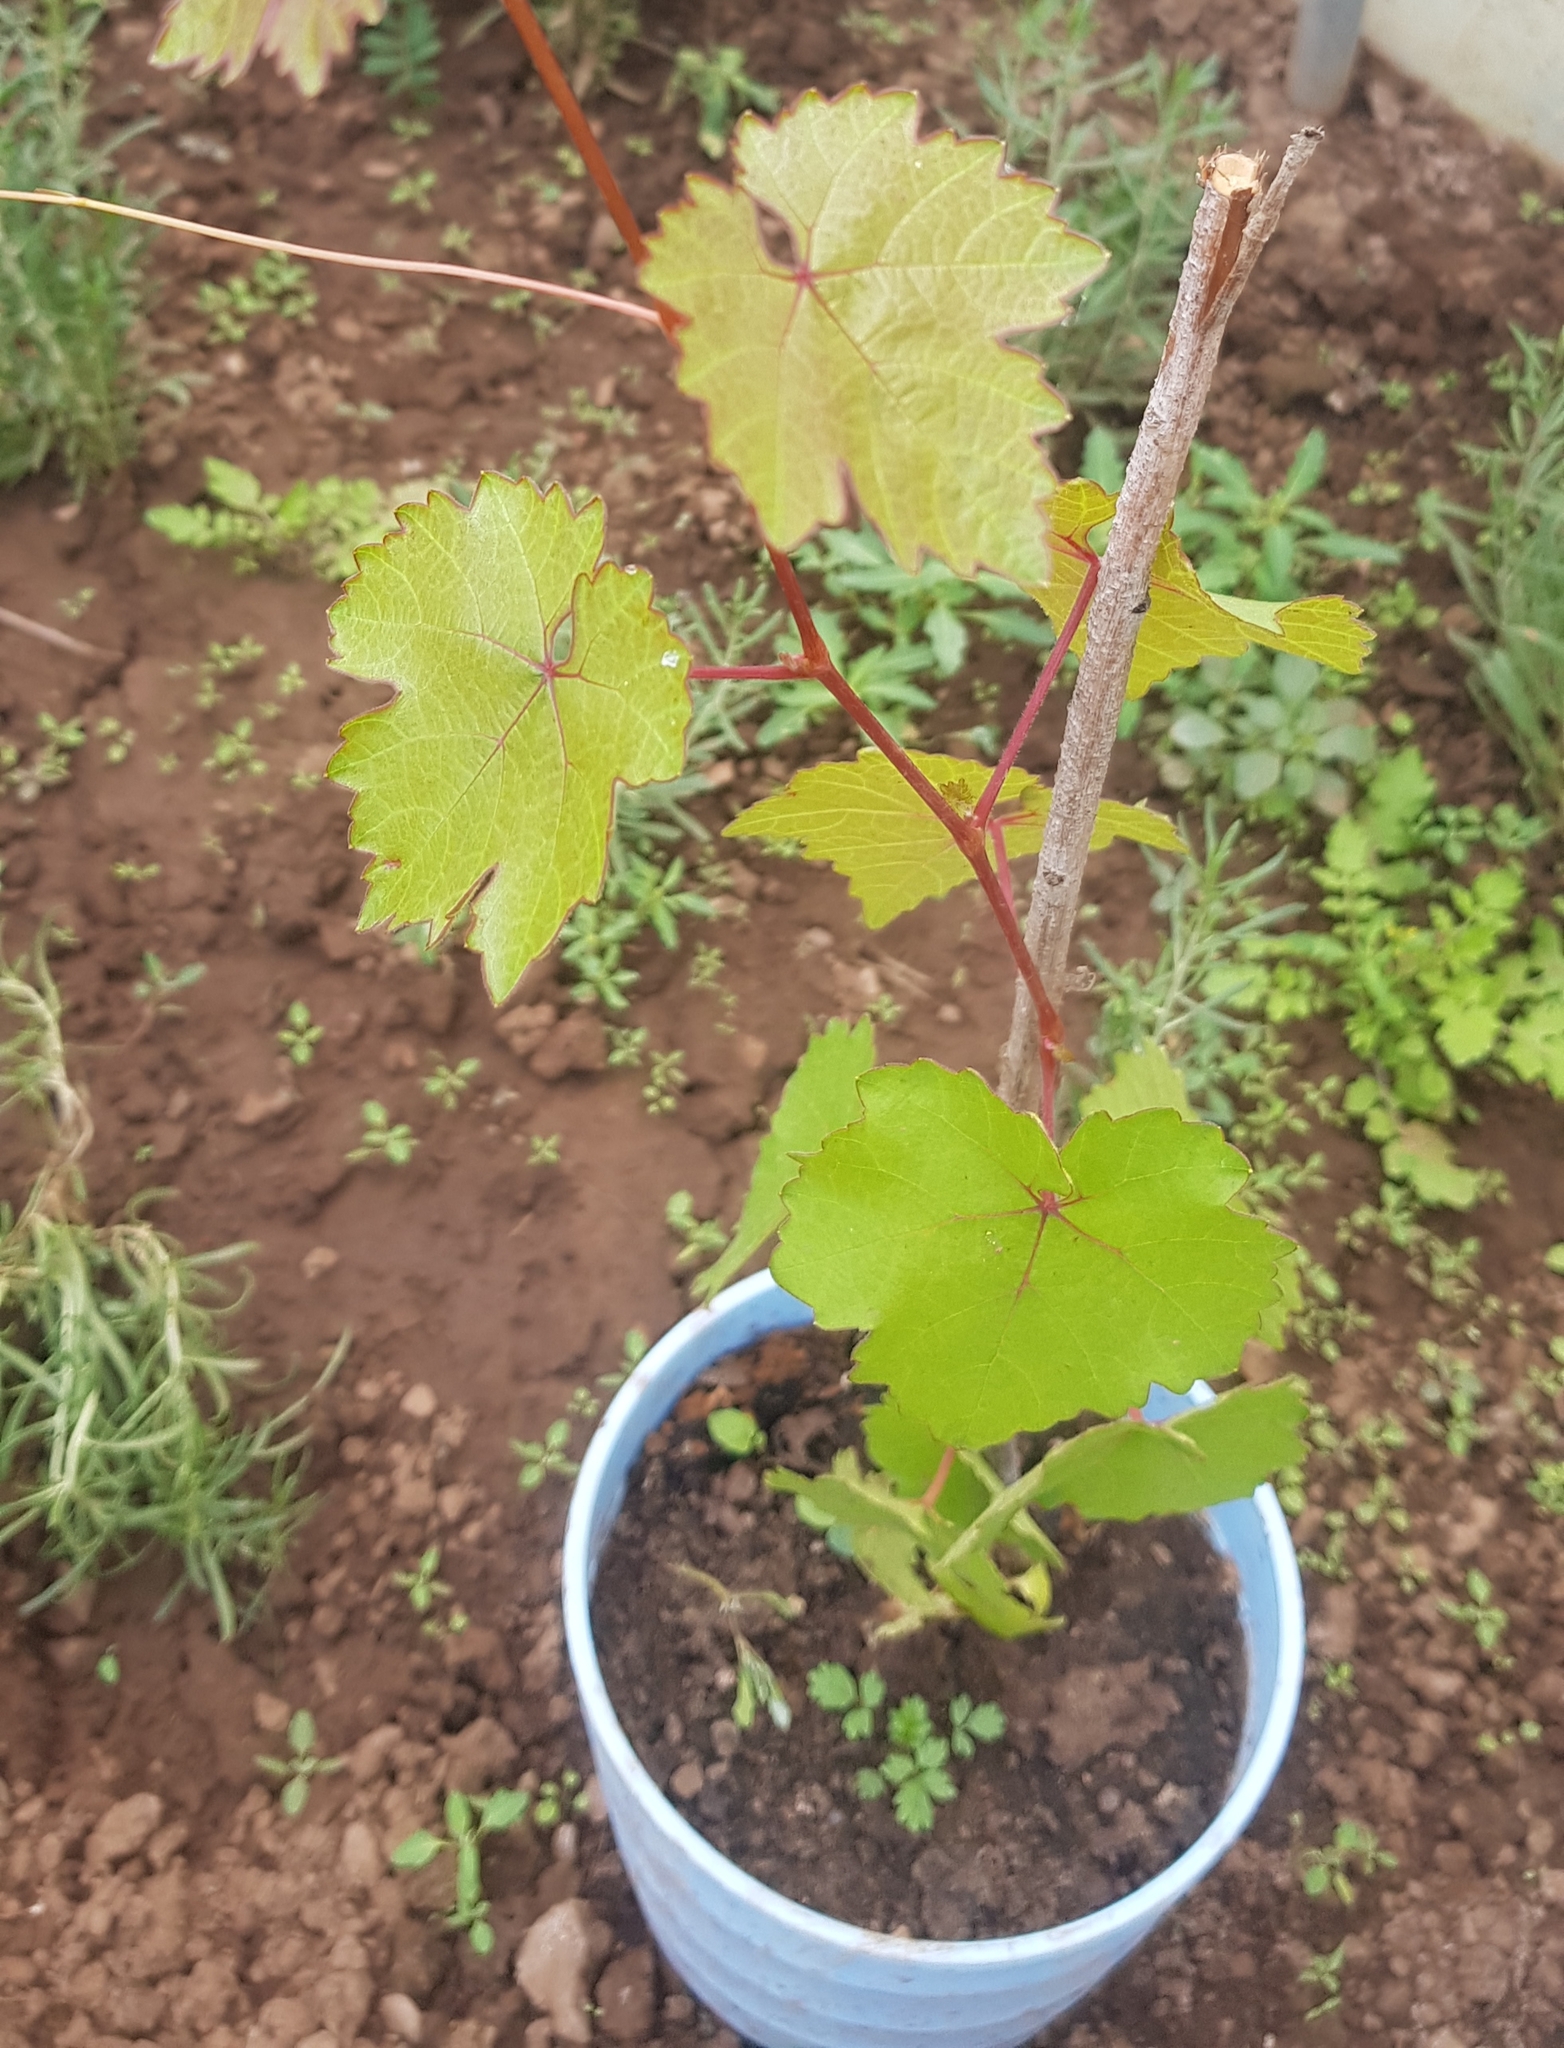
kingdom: Plantae
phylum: Tracheophyta
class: Magnoliopsida
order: Vitales
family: Vitaceae
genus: Vitis
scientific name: Vitis vinifera
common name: Grape-vine
